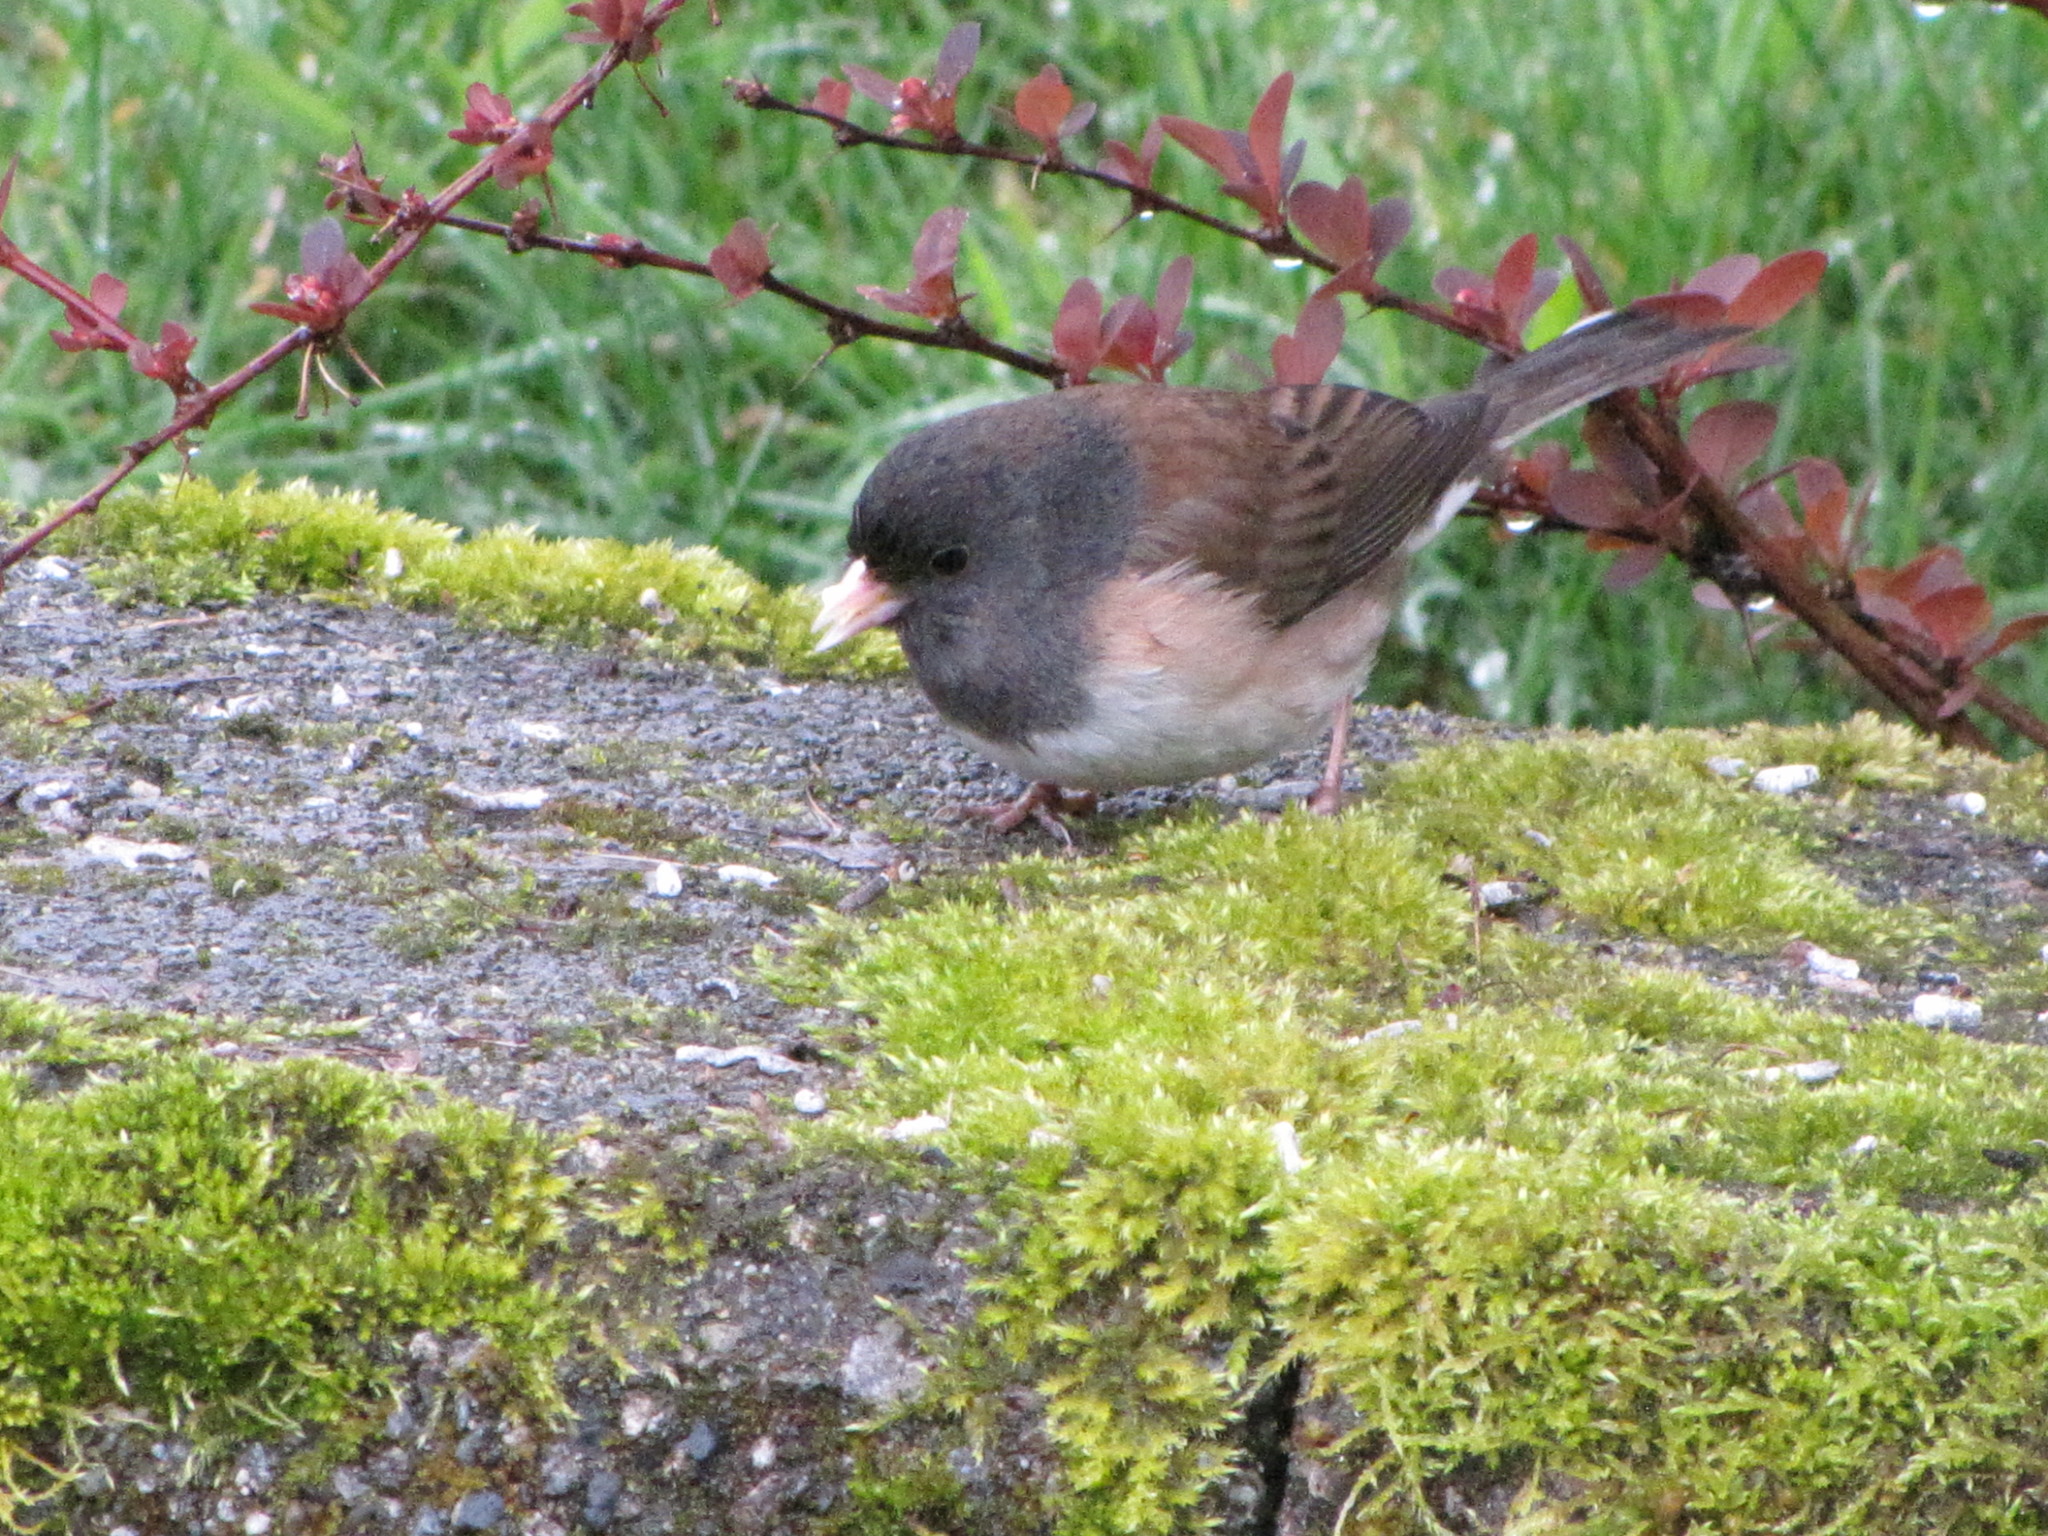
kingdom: Animalia
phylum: Chordata
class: Aves
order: Passeriformes
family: Passerellidae
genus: Junco
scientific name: Junco hyemalis
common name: Dark-eyed junco
